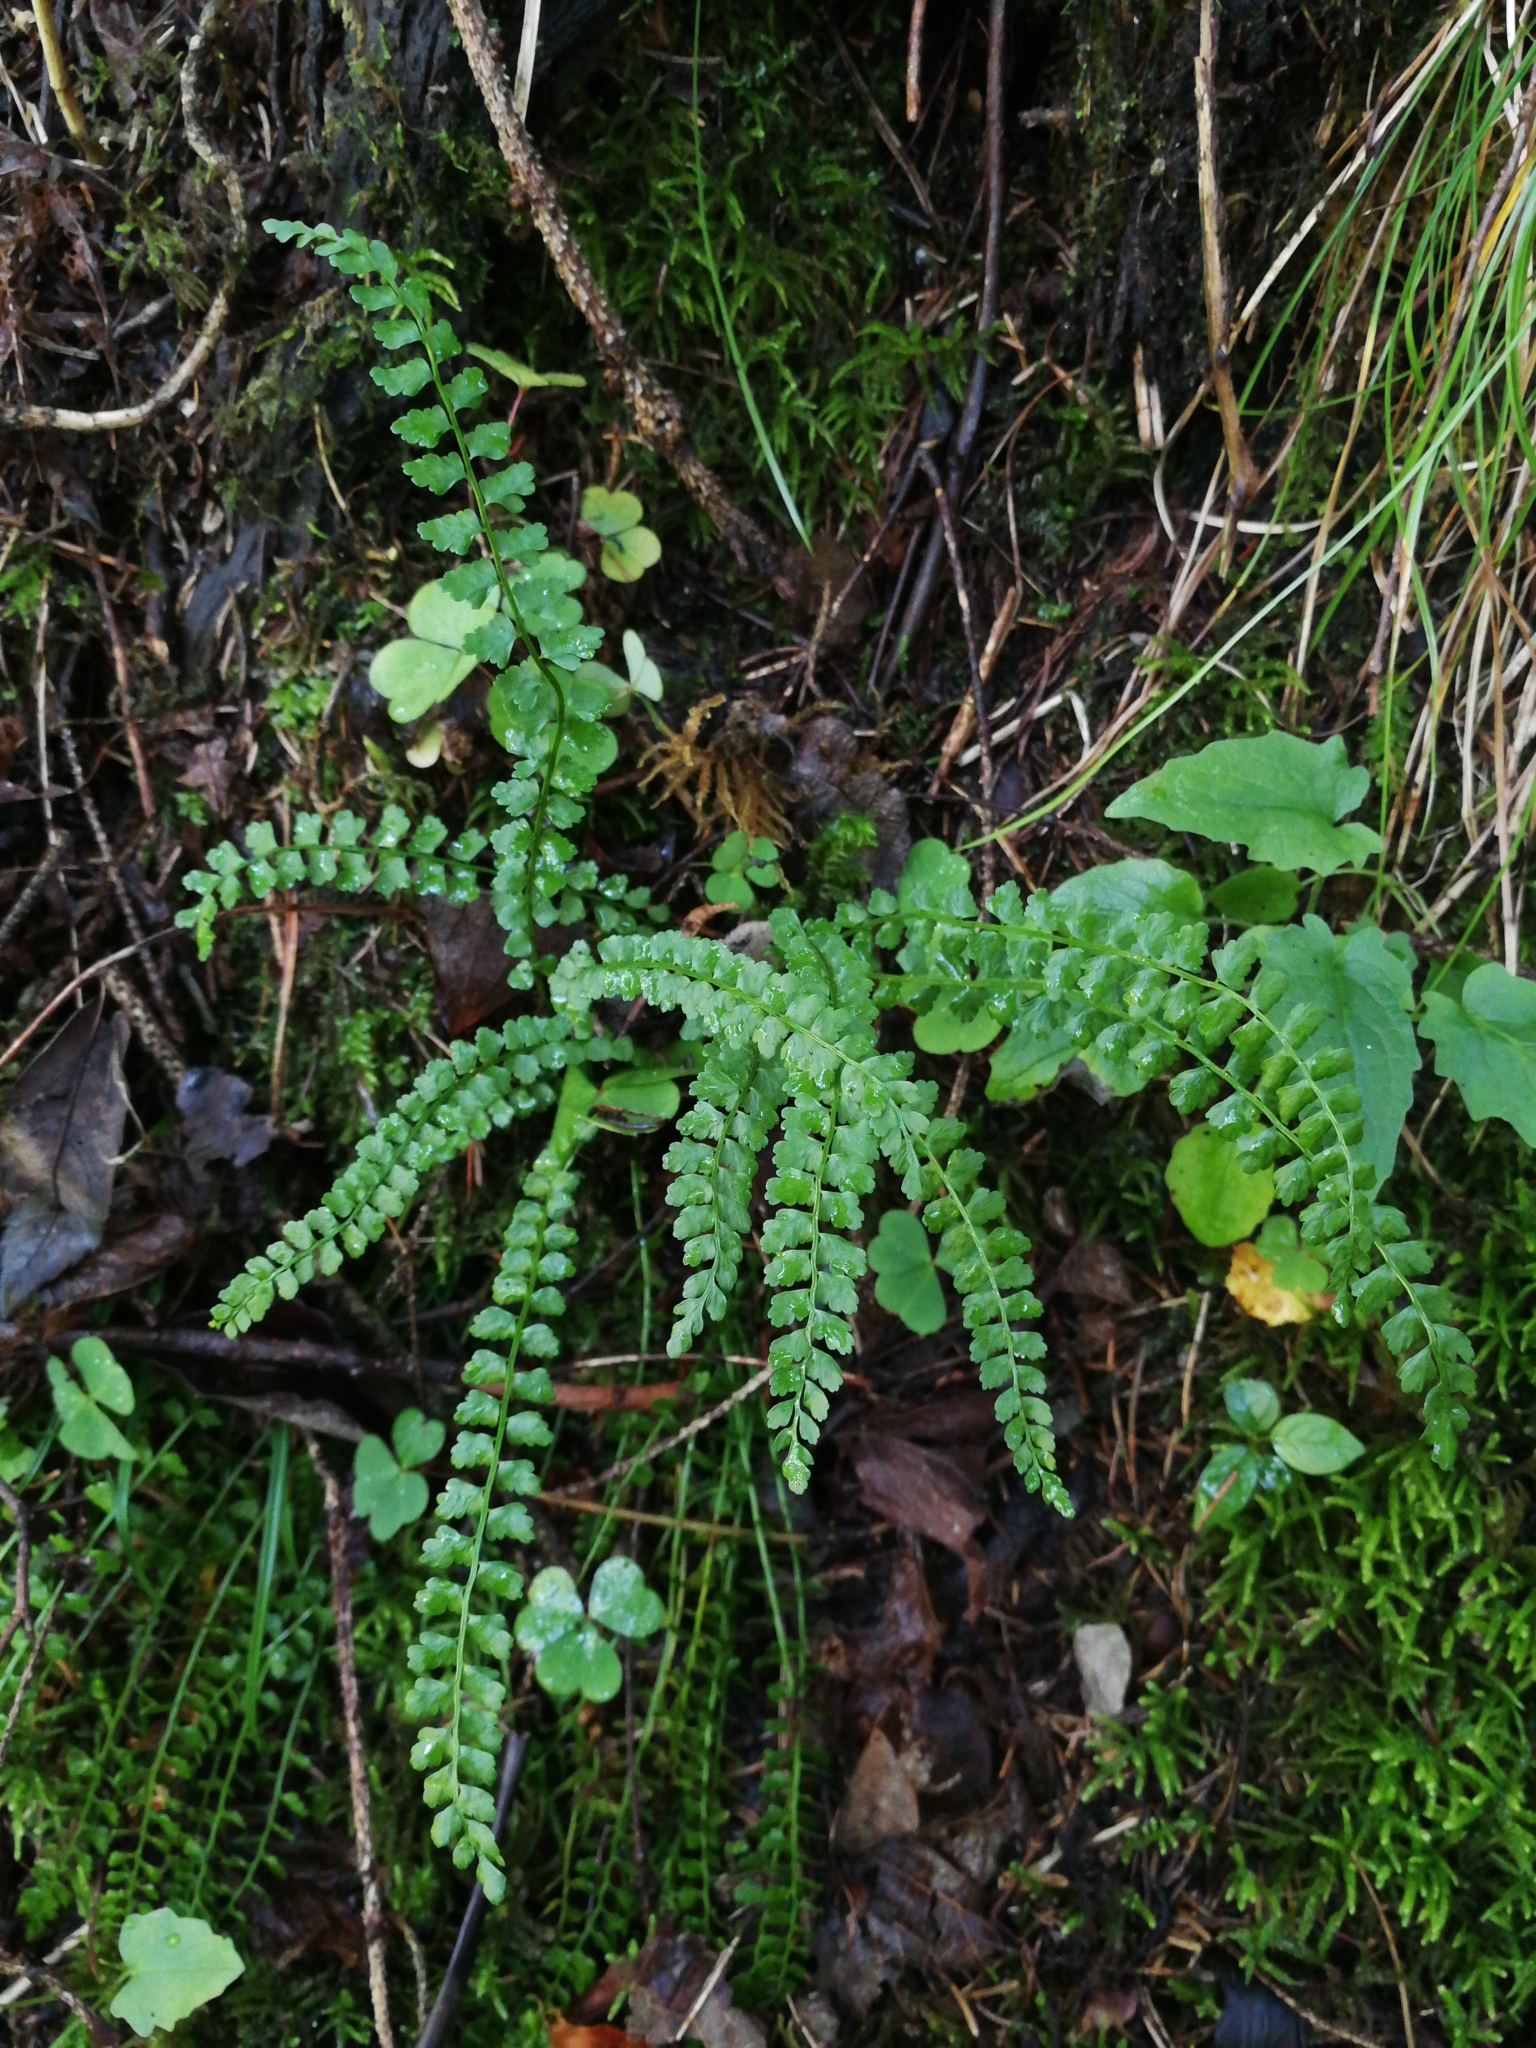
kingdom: Plantae
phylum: Tracheophyta
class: Polypodiopsida
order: Polypodiales
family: Aspleniaceae
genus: Asplenium
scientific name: Asplenium viride
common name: Green spleenwort
